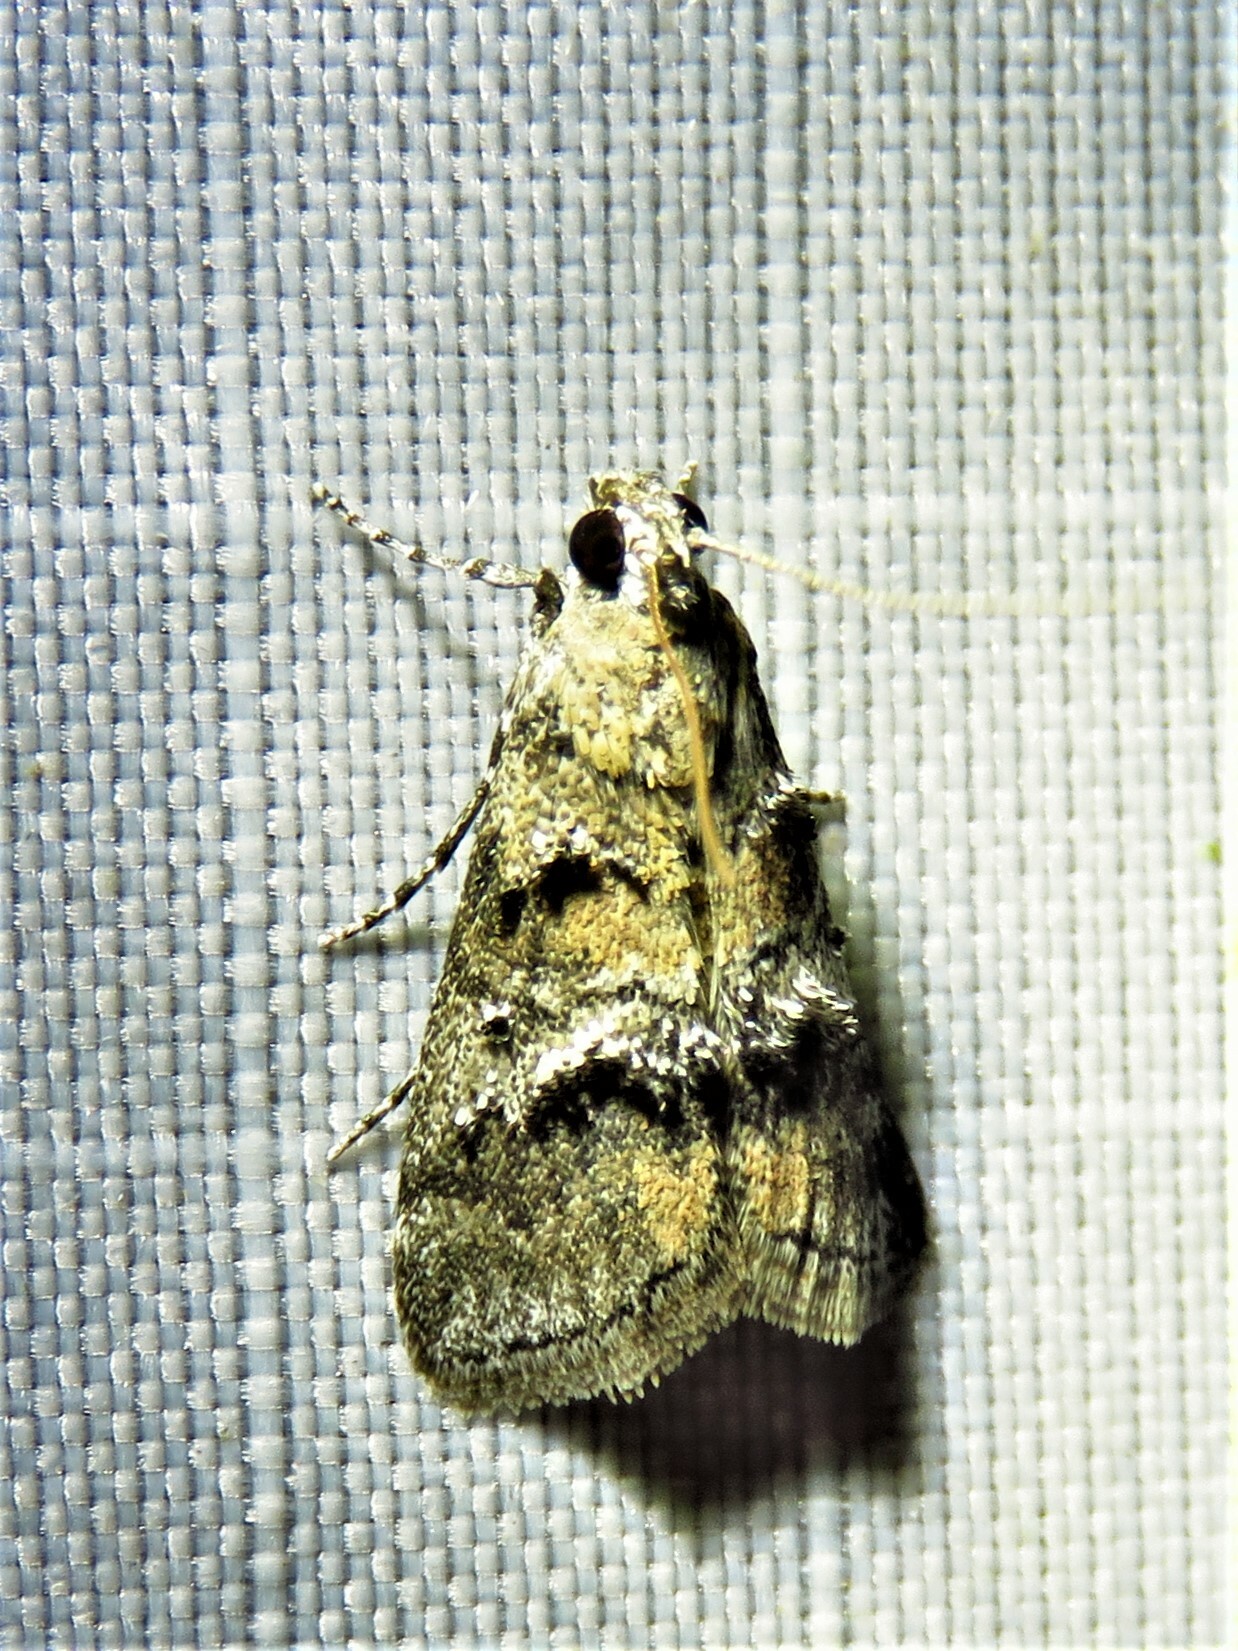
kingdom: Animalia
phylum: Arthropoda
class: Insecta
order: Lepidoptera
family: Pyralidae
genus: Pococera
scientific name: Pococera asperatella
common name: Maple webworm moth
